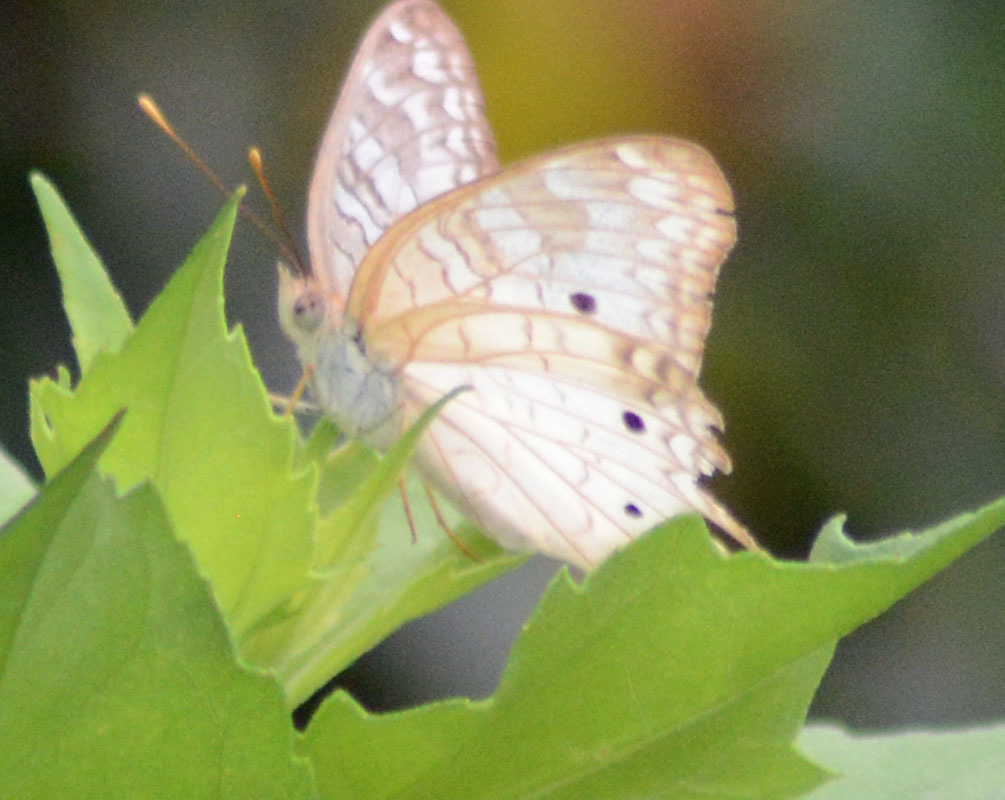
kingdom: Animalia
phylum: Arthropoda
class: Insecta
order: Lepidoptera
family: Nymphalidae
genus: Anartia
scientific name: Anartia jatrophae
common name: White peacock
